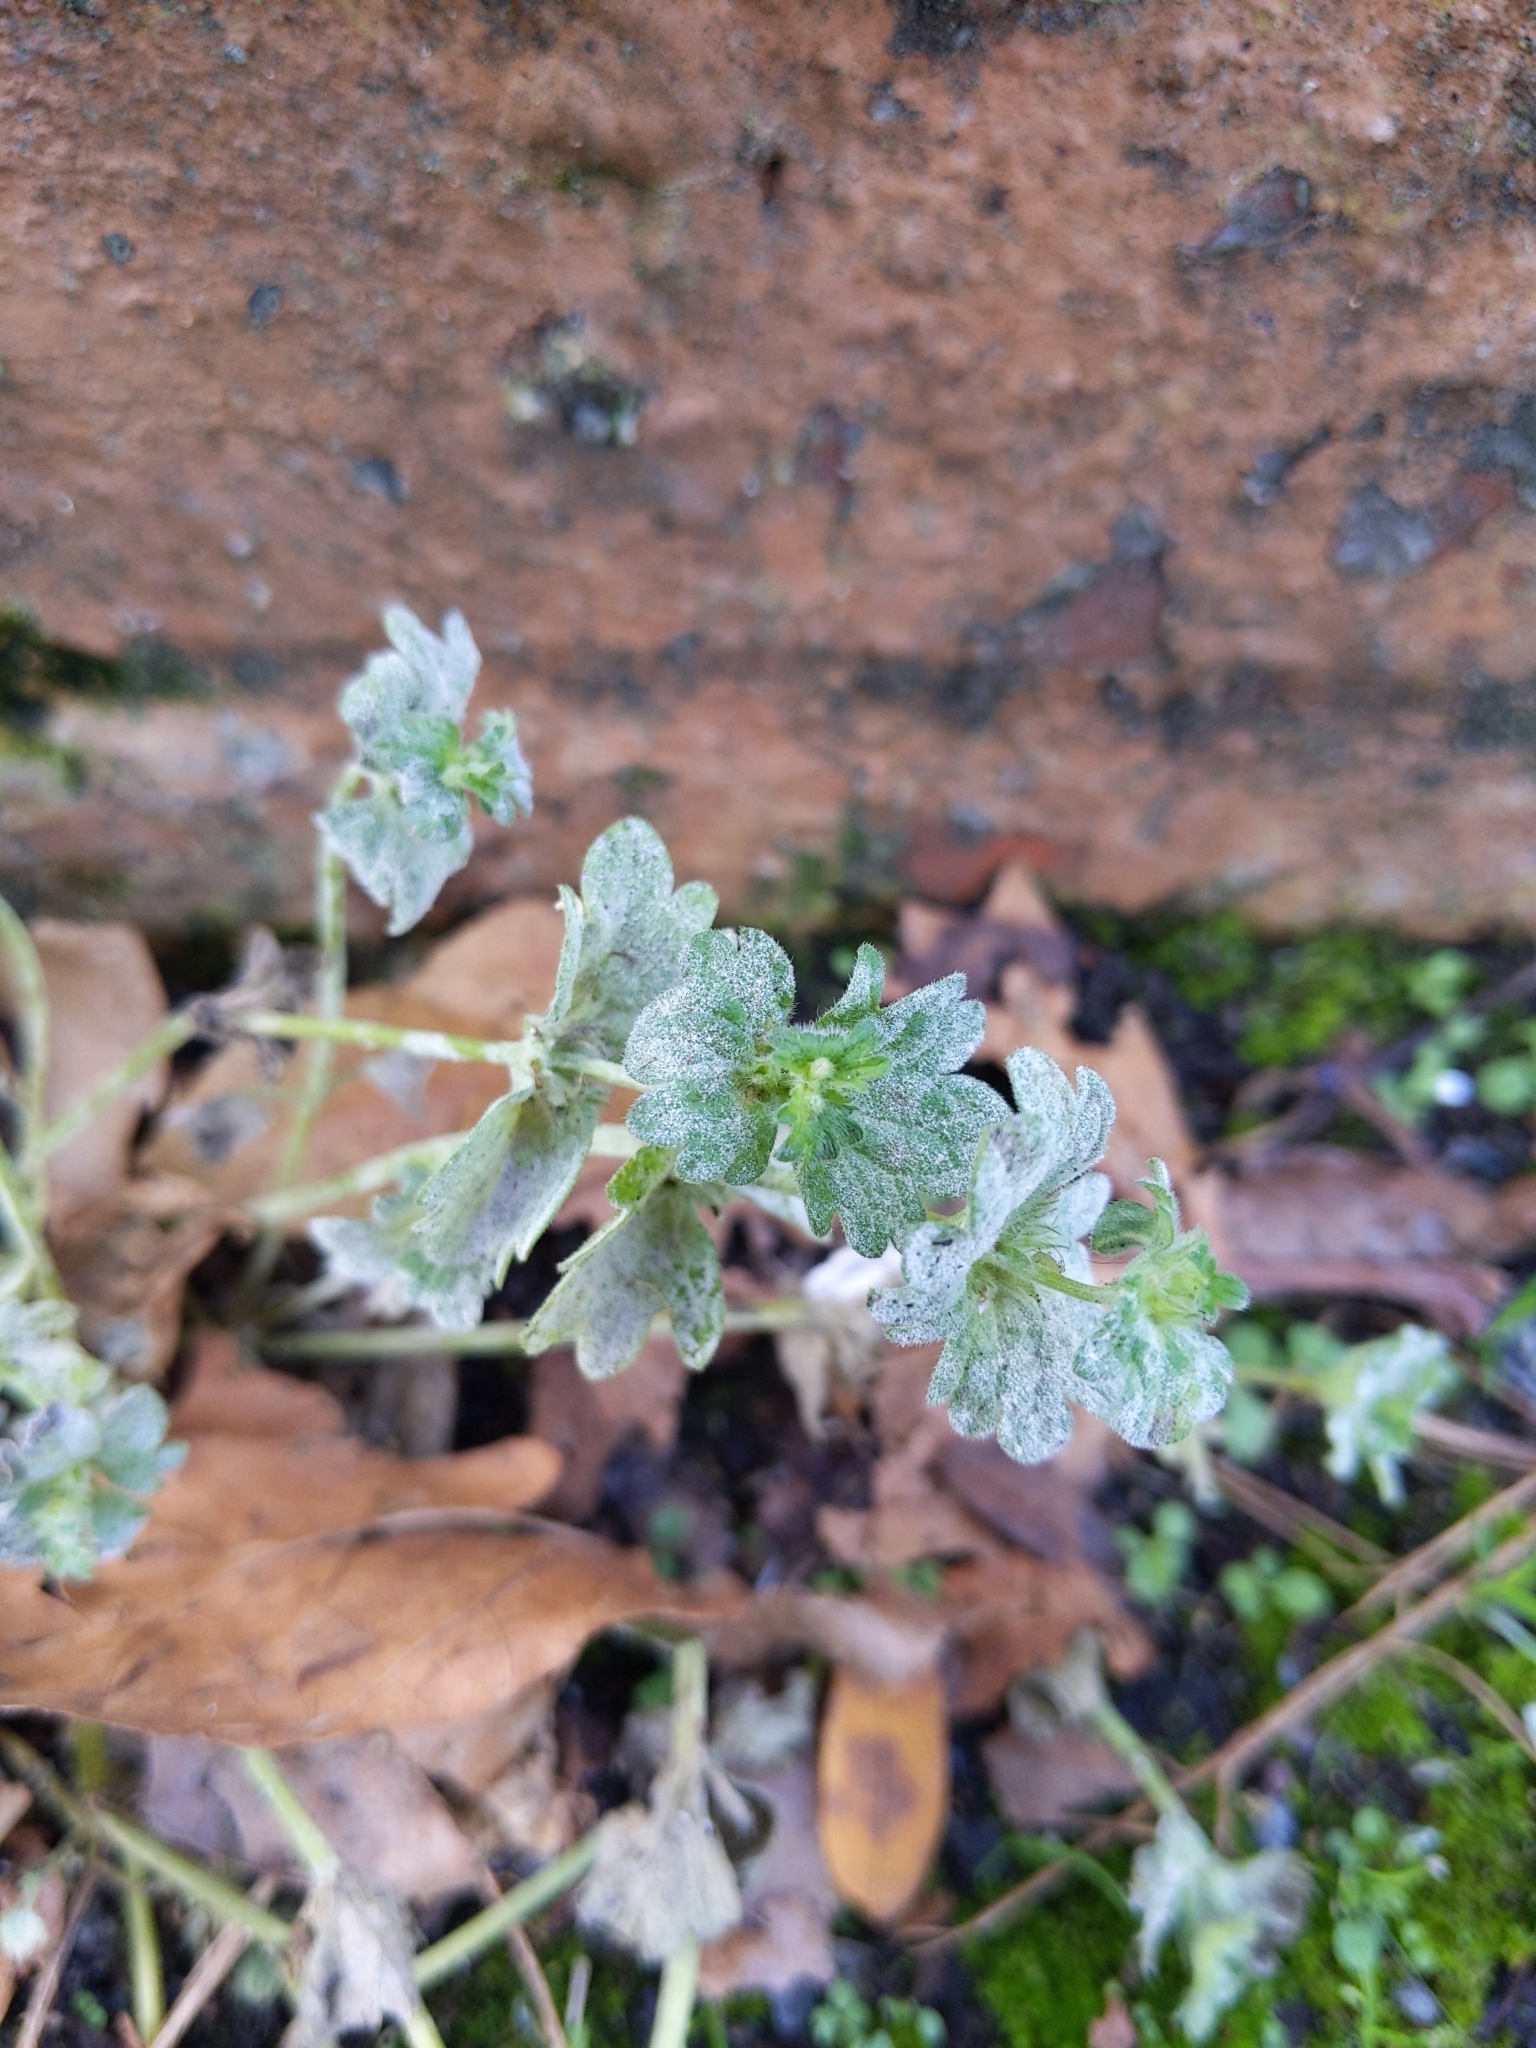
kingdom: Plantae
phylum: Tracheophyta
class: Magnoliopsida
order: Lamiales
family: Lamiaceae
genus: Lamium
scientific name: Lamium amplexicaule
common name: Henbit dead-nettle
